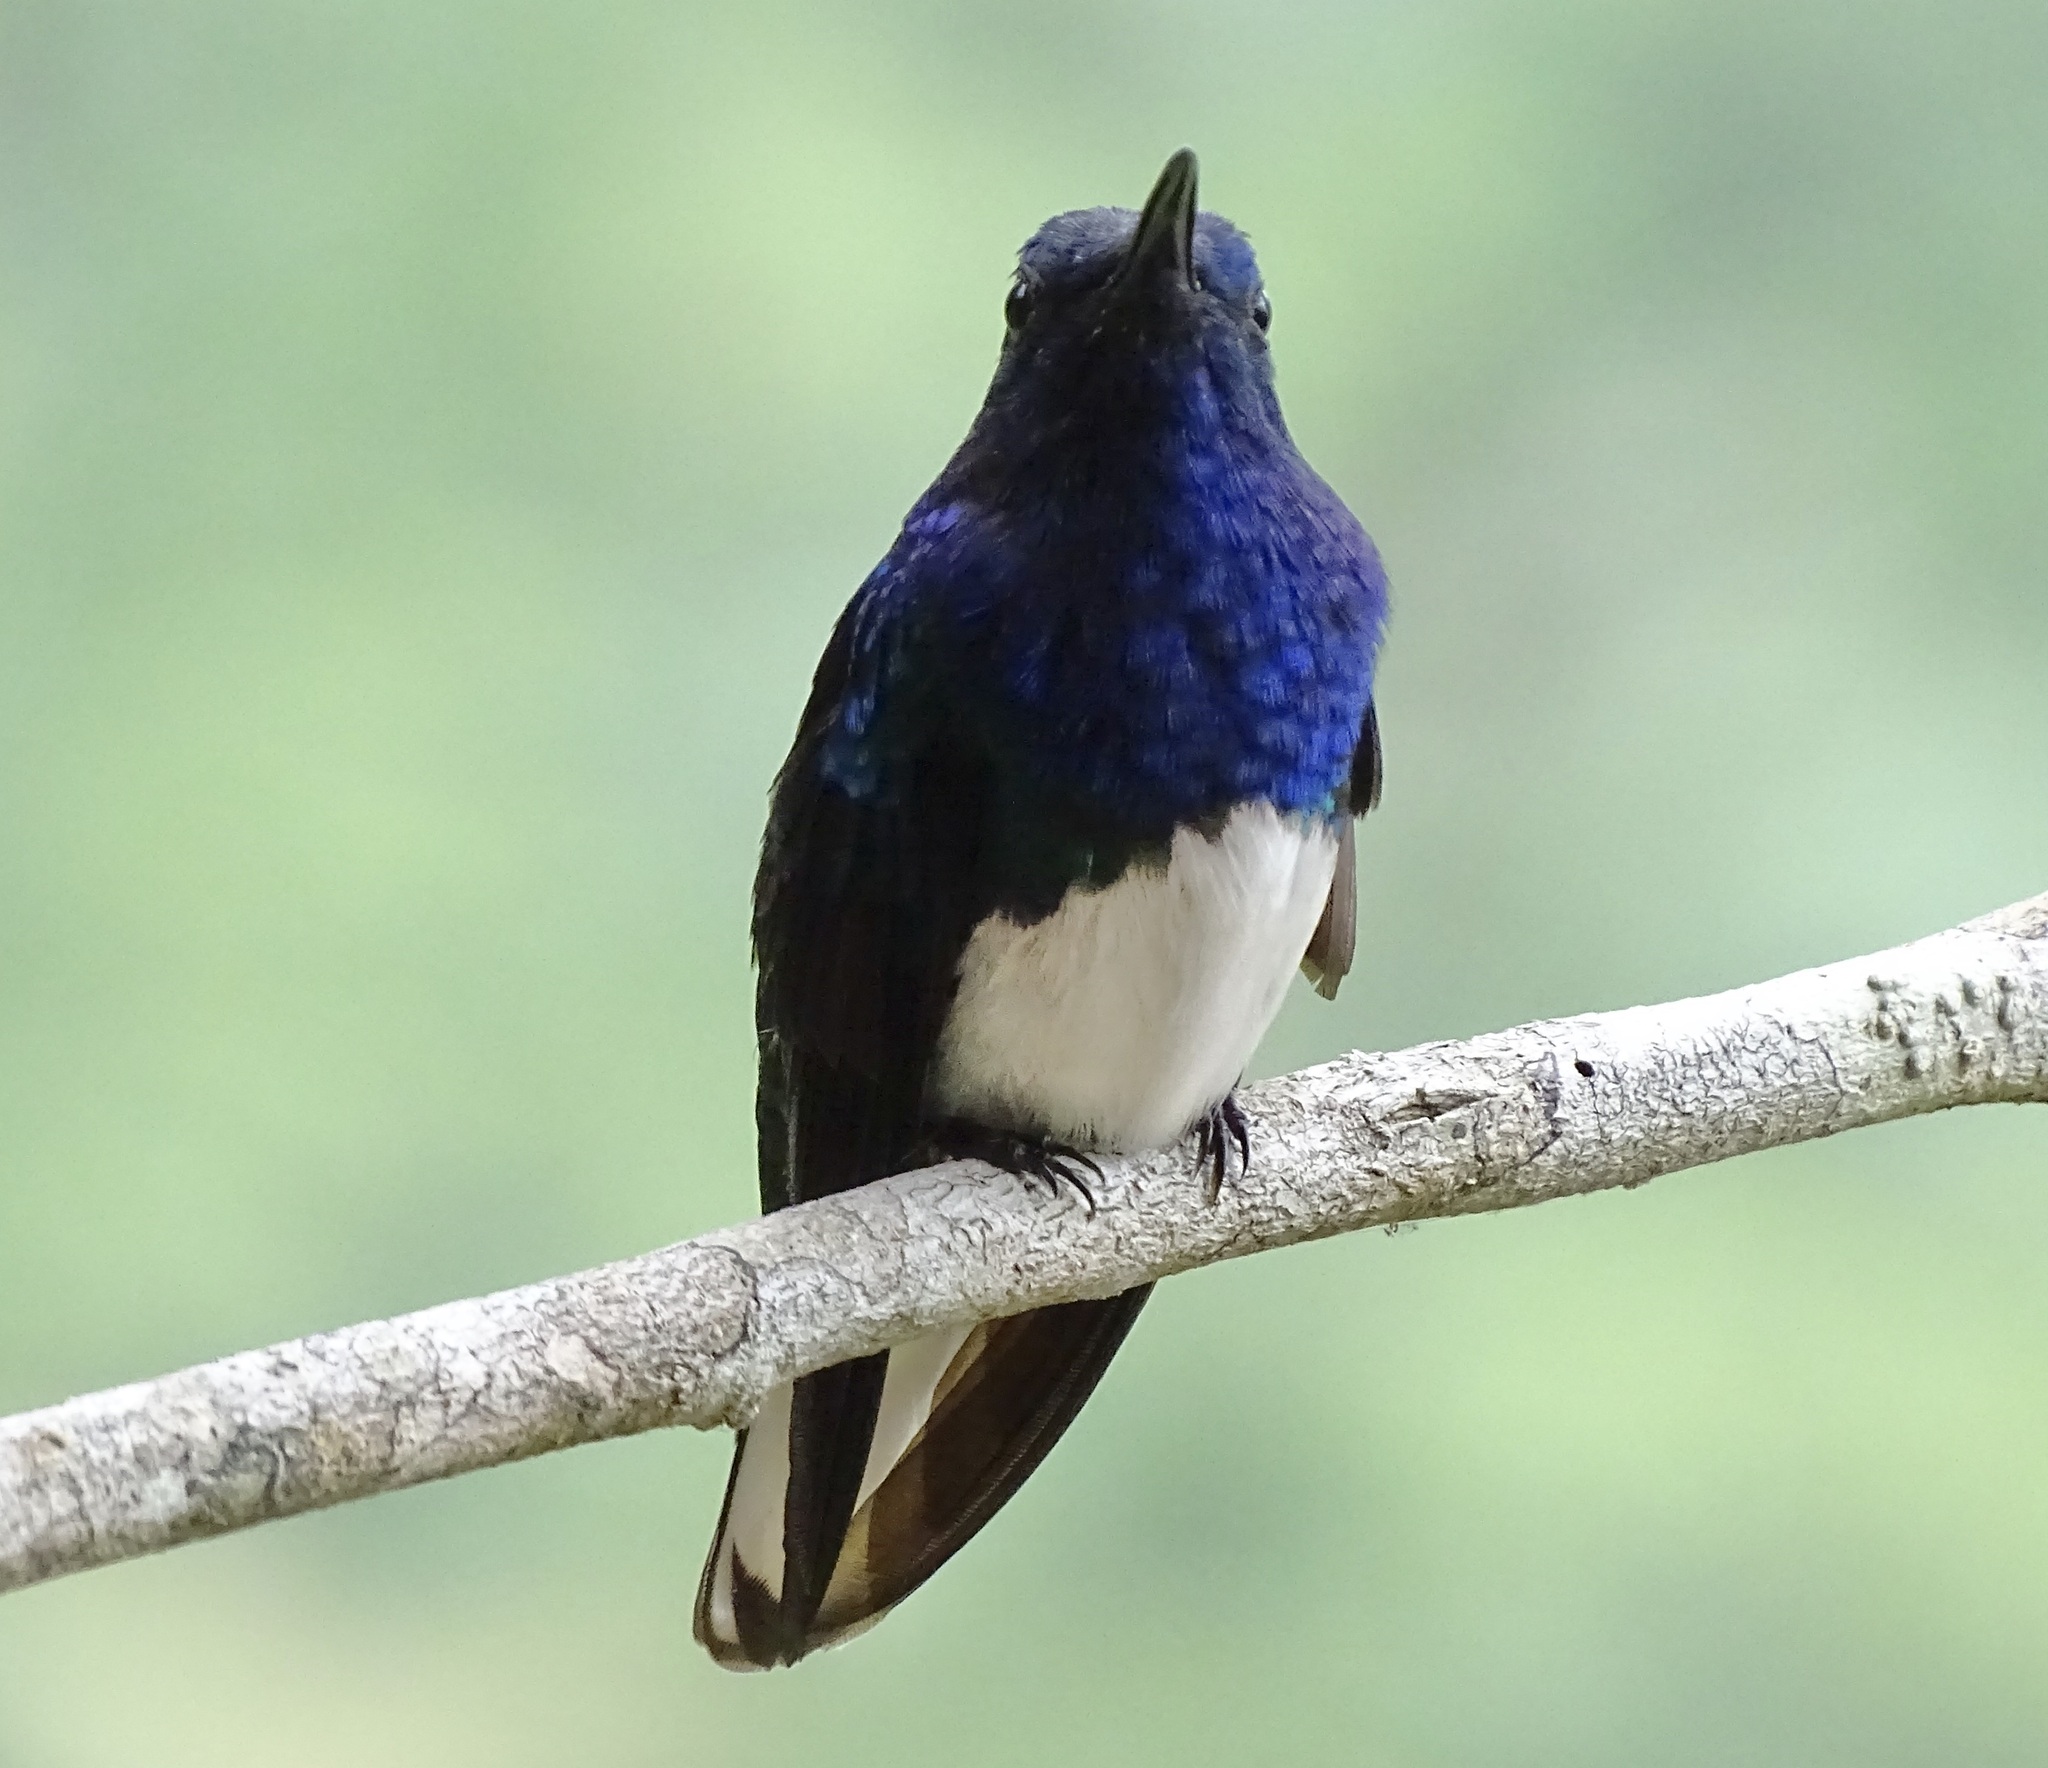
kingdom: Animalia
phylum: Chordata
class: Aves
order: Apodiformes
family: Trochilidae
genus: Florisuga
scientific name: Florisuga mellivora
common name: White-necked jacobin
